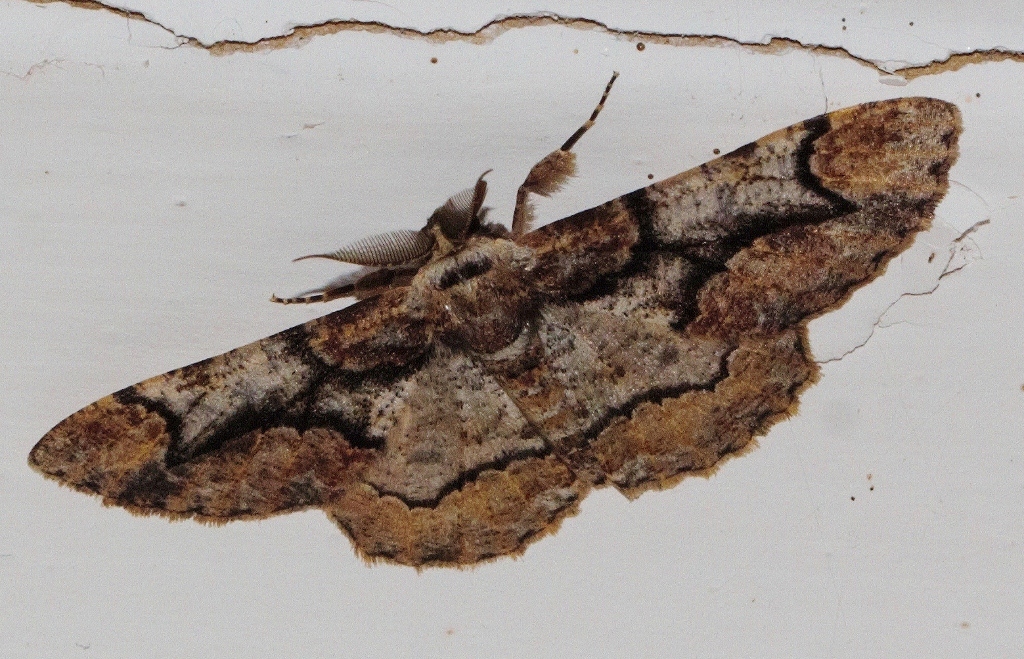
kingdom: Animalia
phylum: Arthropoda
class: Insecta
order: Lepidoptera
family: Geometridae
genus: Colocleora
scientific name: Colocleora divisaria
